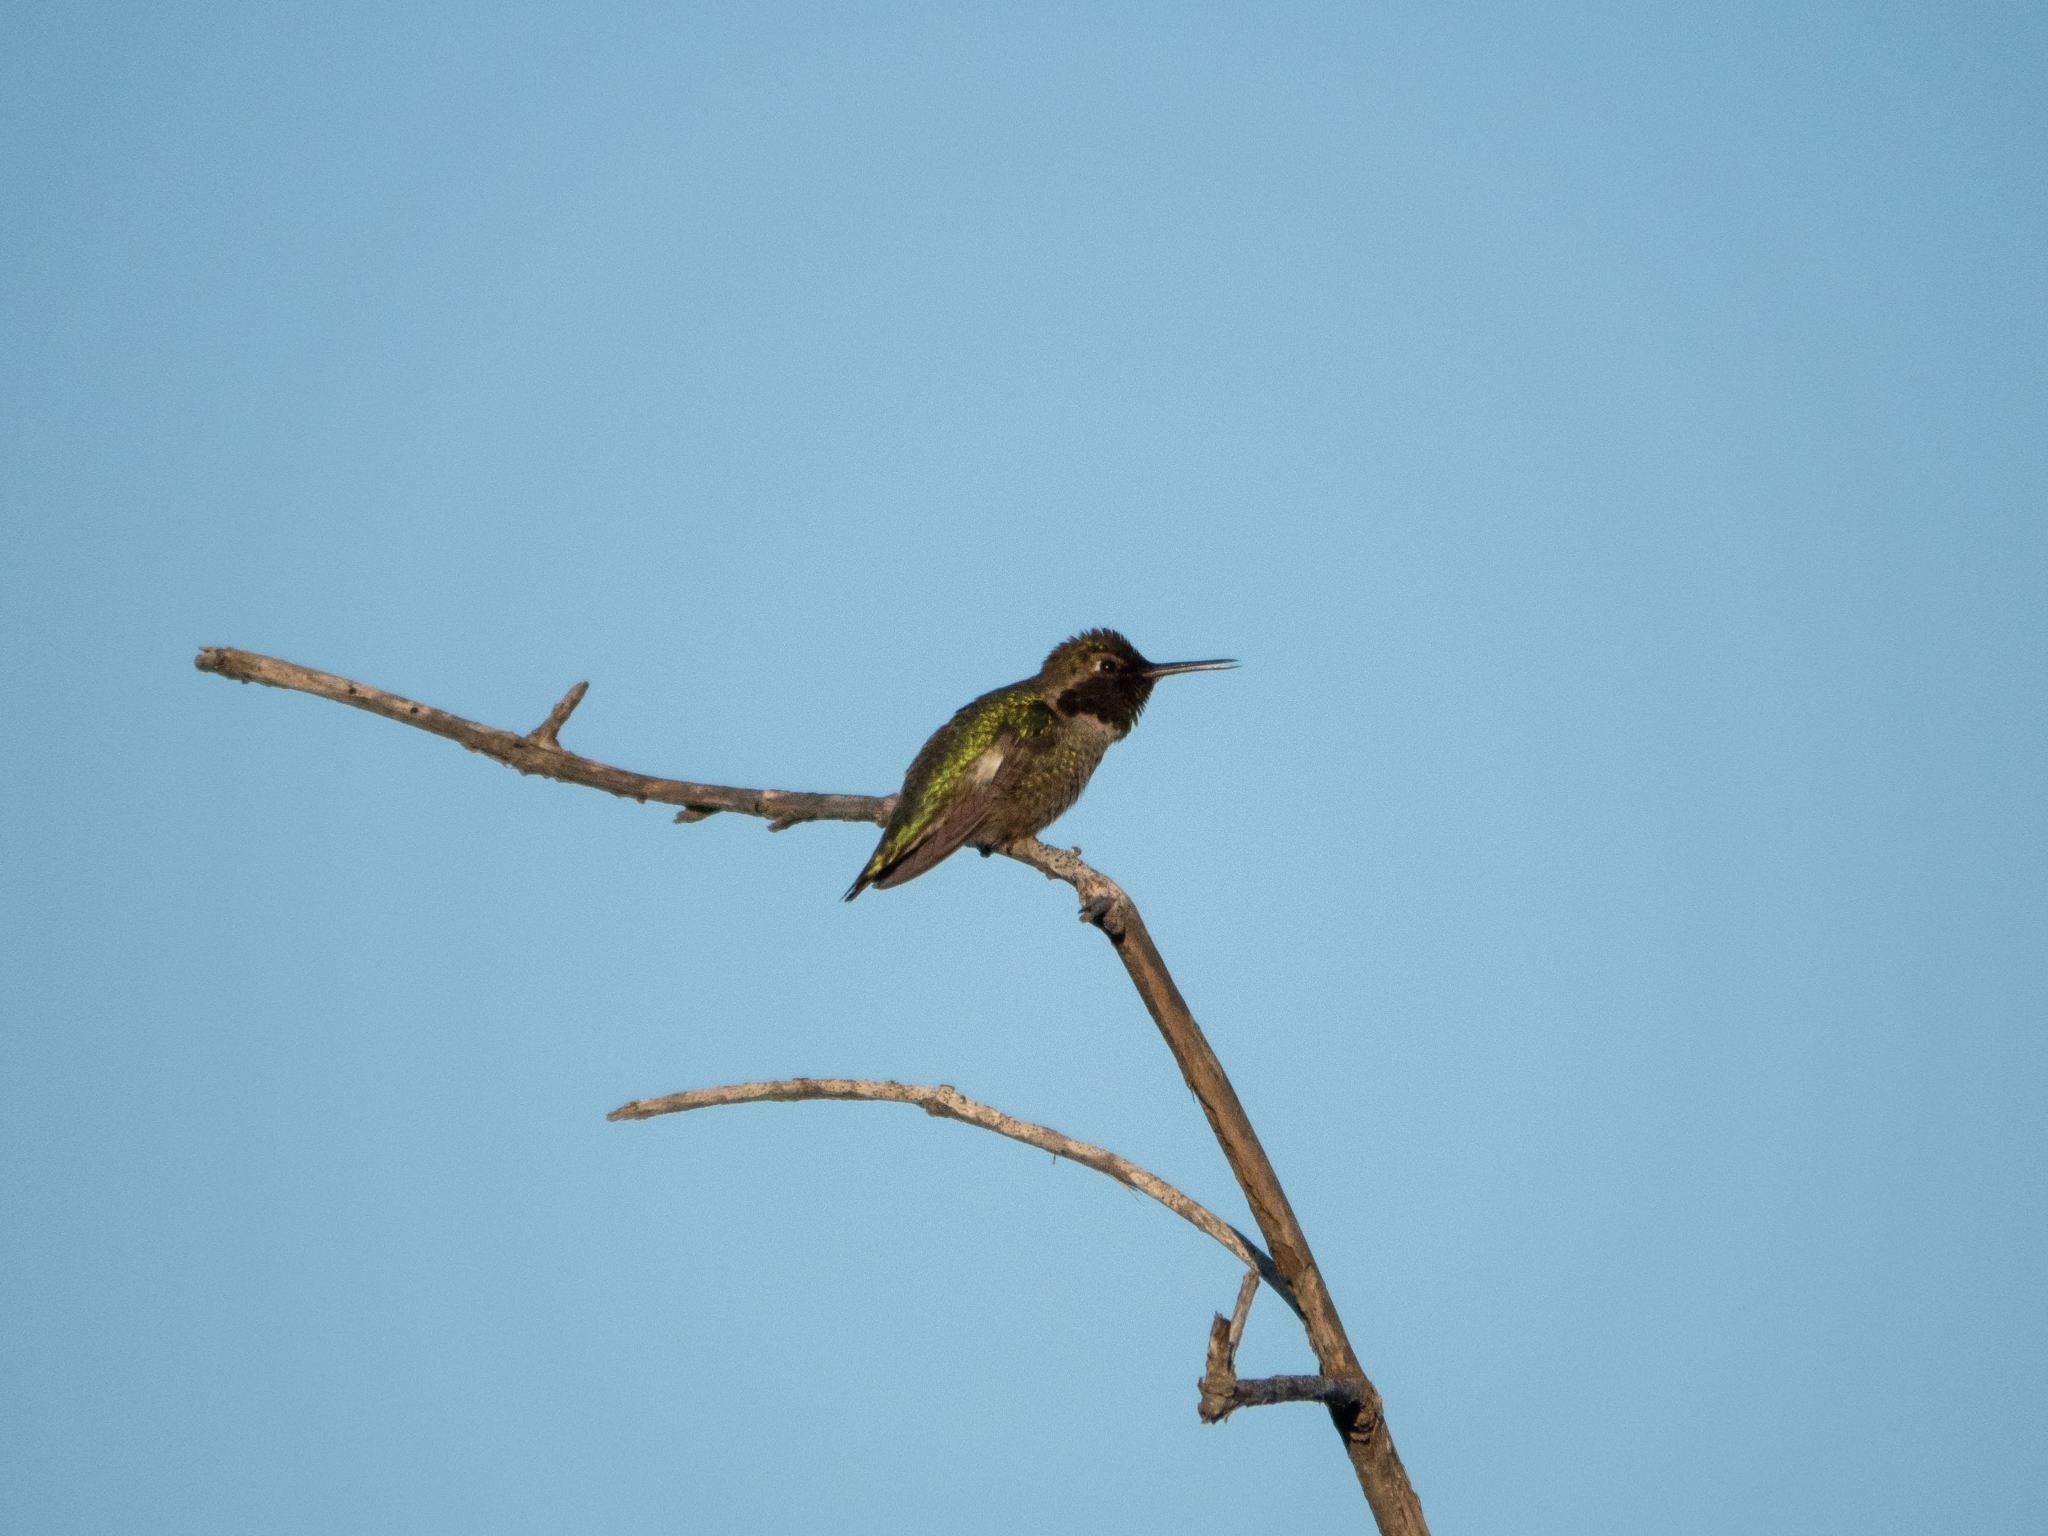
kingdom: Animalia
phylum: Chordata
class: Aves
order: Apodiformes
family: Trochilidae
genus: Calypte
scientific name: Calypte anna
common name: Anna's hummingbird
